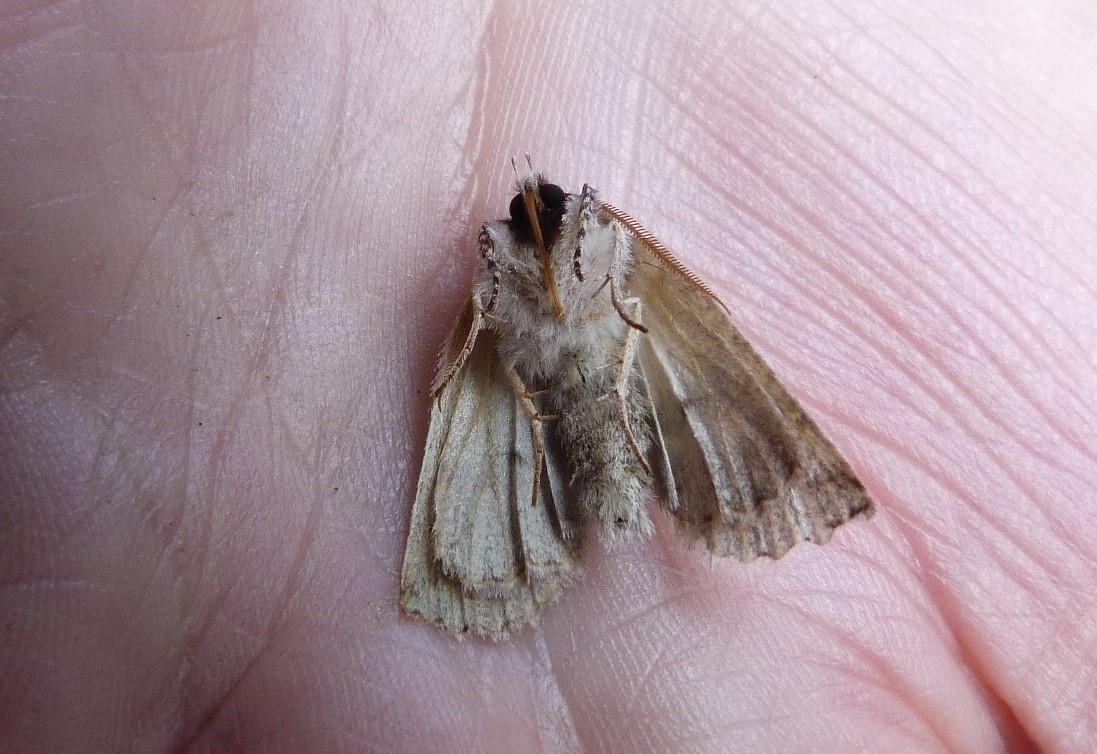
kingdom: Animalia
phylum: Arthropoda
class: Insecta
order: Lepidoptera
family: Geometridae
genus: Declana
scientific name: Declana floccosa
